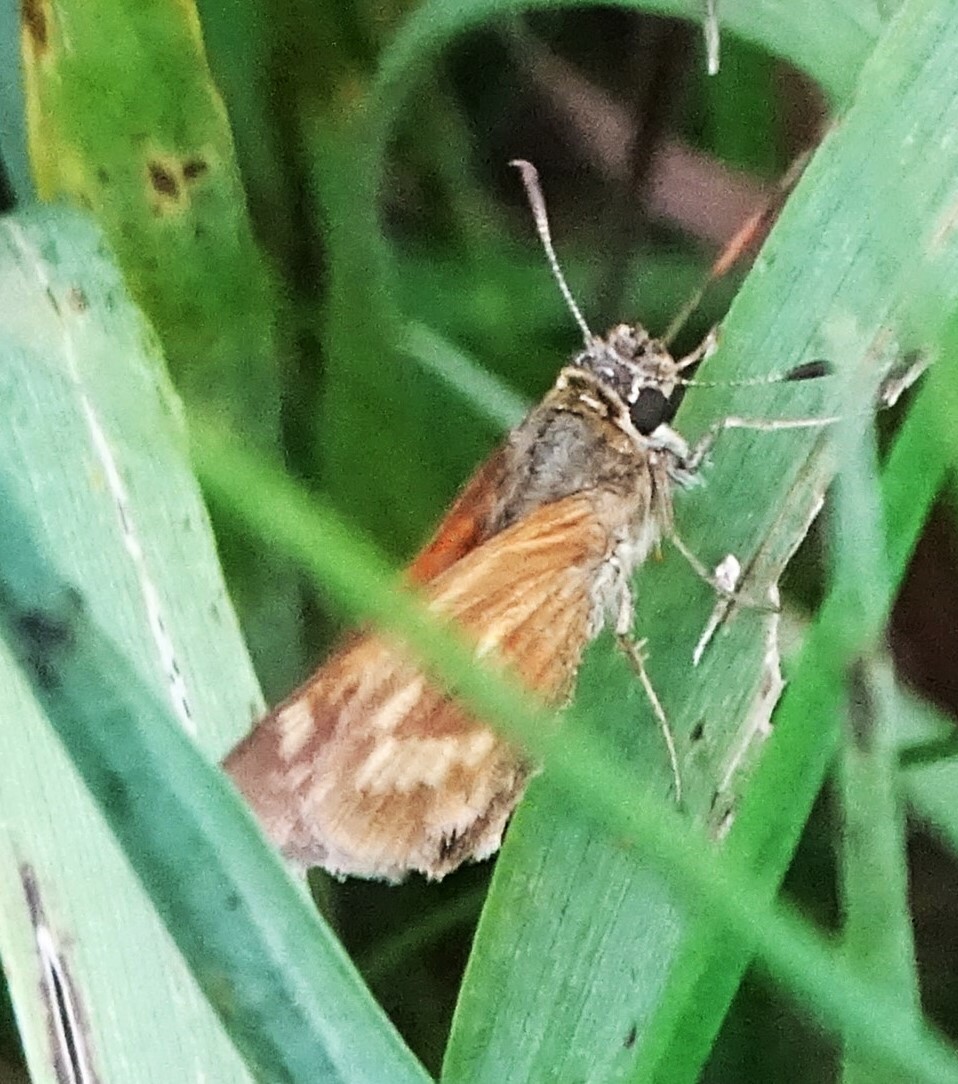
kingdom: Animalia
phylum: Arthropoda
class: Insecta
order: Lepidoptera
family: Hesperiidae
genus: Polites
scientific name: Polites mystic
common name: Long dash
